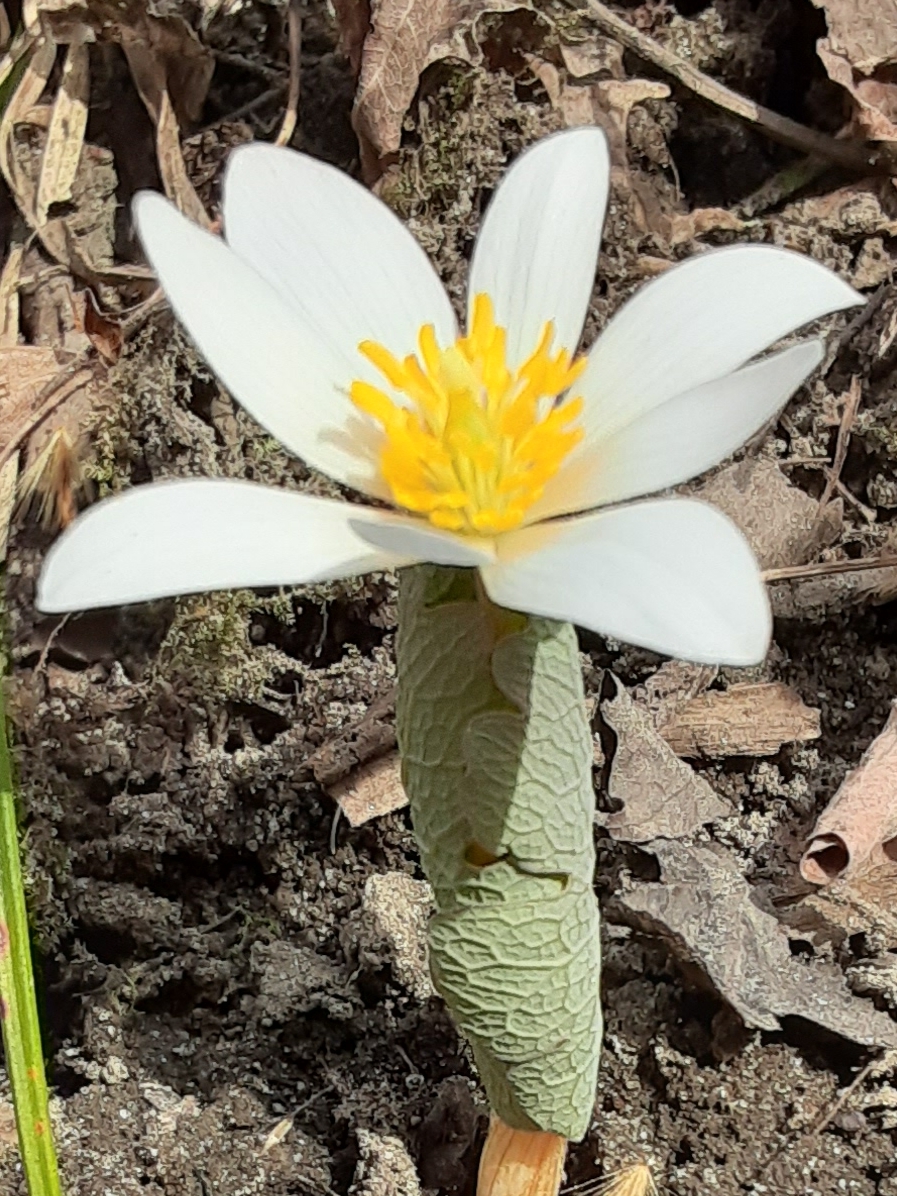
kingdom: Plantae
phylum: Tracheophyta
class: Magnoliopsida
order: Ranunculales
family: Papaveraceae
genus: Sanguinaria
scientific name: Sanguinaria canadensis
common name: Bloodroot
